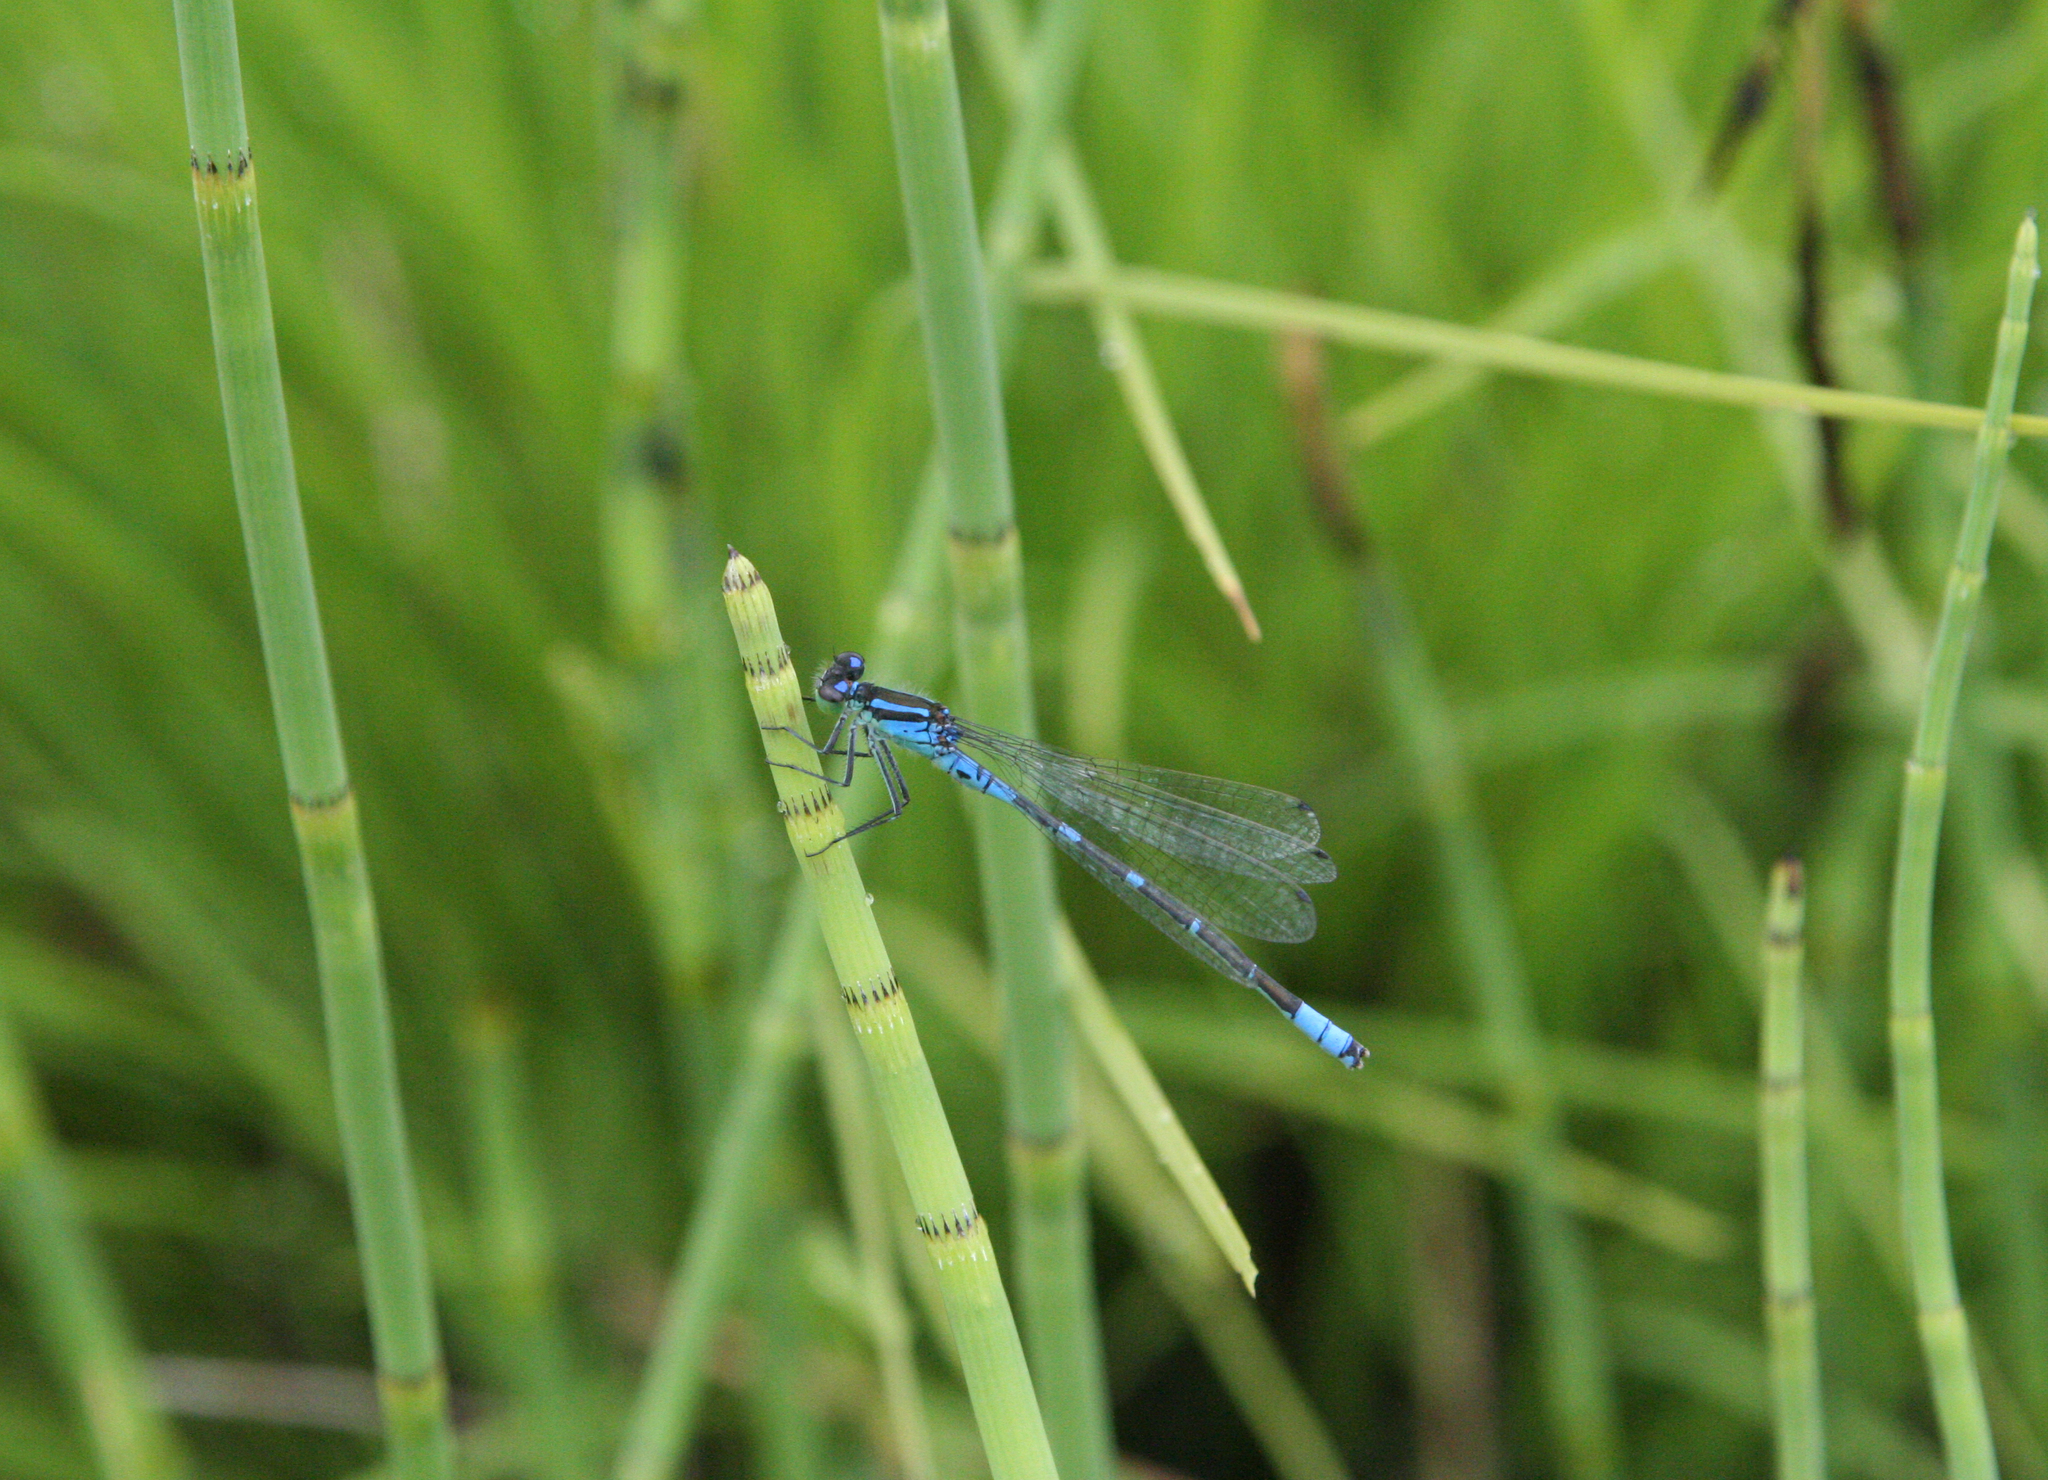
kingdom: Animalia
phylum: Arthropoda
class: Insecta
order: Odonata
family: Coenagrionidae
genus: Coenagrion
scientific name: Coenagrion lunulatum
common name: Irish damselfly
